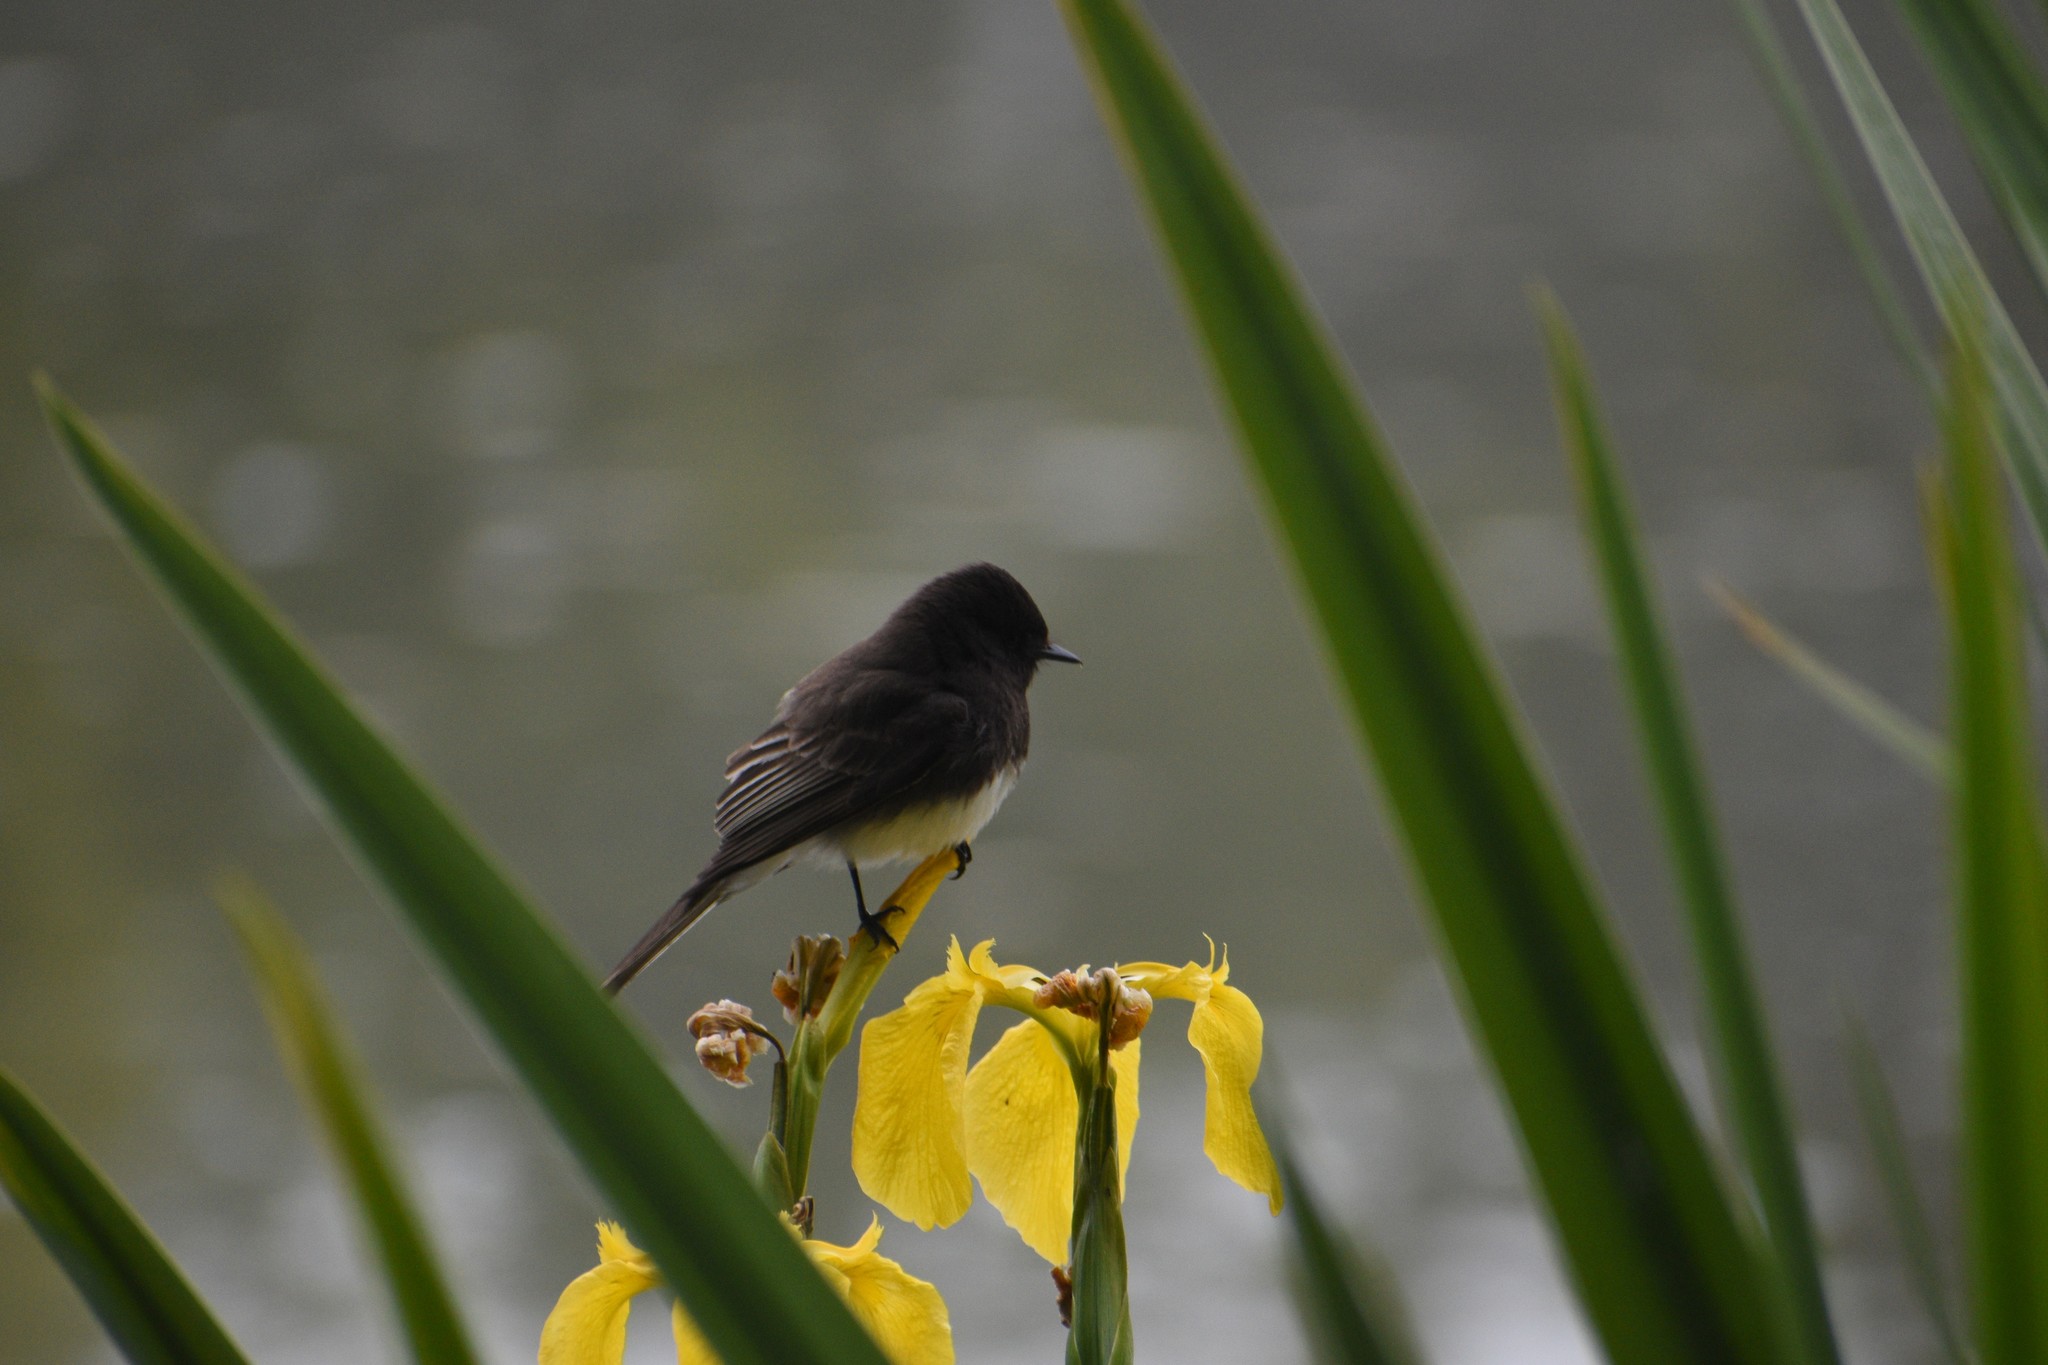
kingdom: Animalia
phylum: Chordata
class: Aves
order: Passeriformes
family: Tyrannidae
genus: Sayornis
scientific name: Sayornis nigricans
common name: Black phoebe
